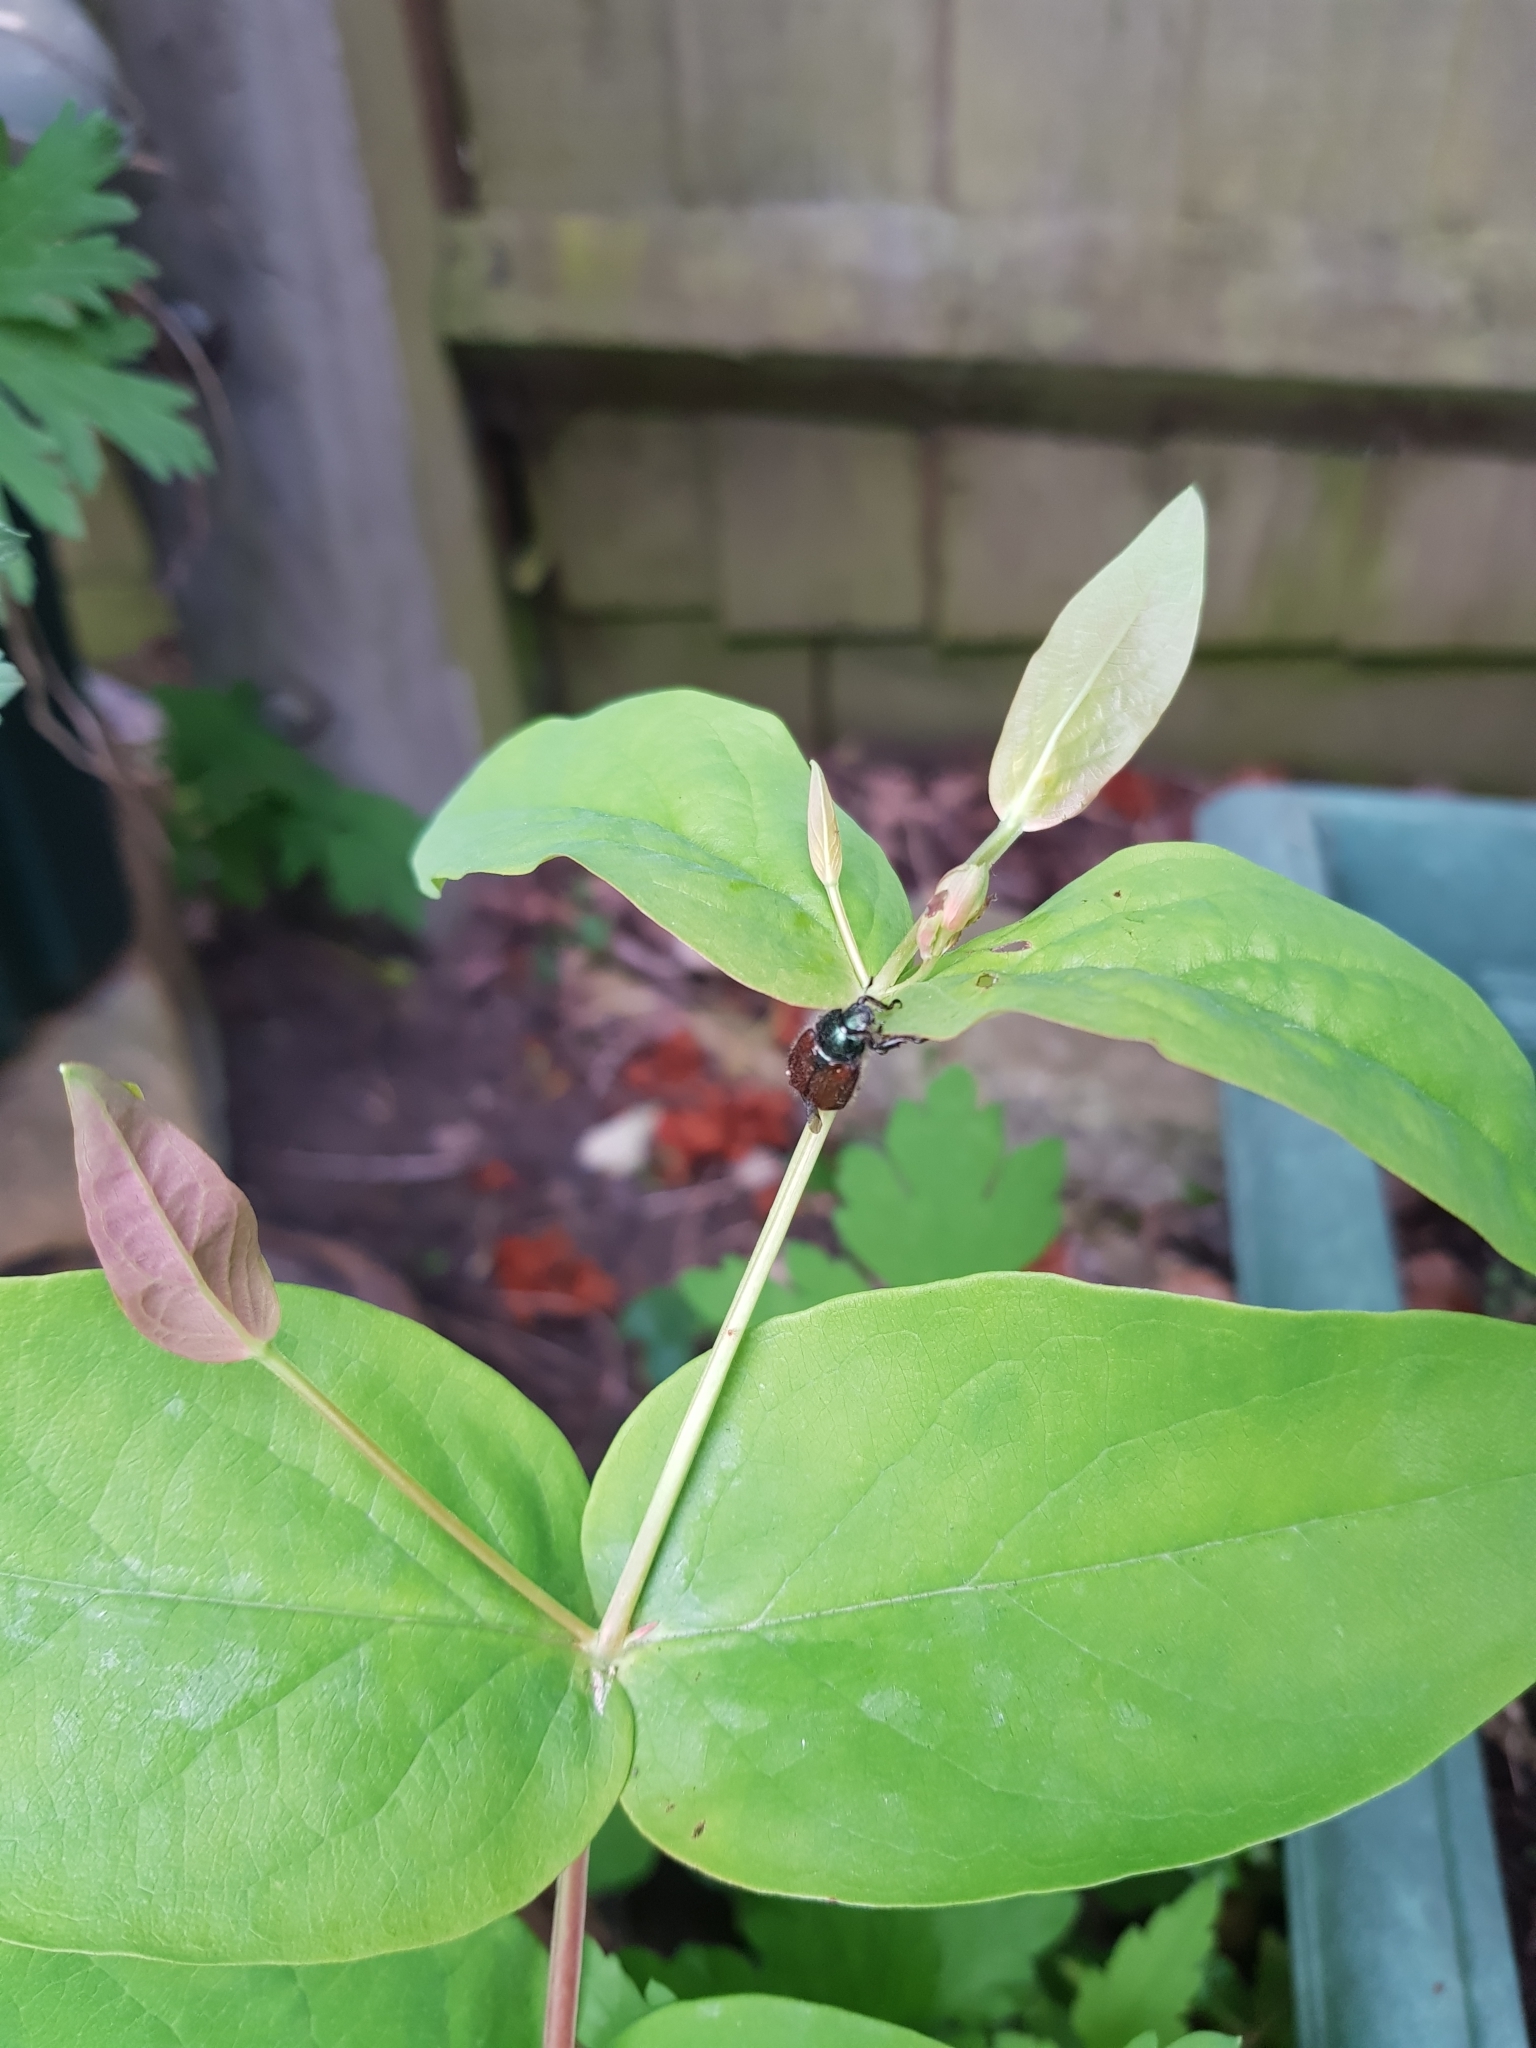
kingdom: Animalia
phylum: Arthropoda
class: Insecta
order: Coleoptera
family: Scarabaeidae
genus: Phyllopertha
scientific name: Phyllopertha horticola
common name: Garden chafer
